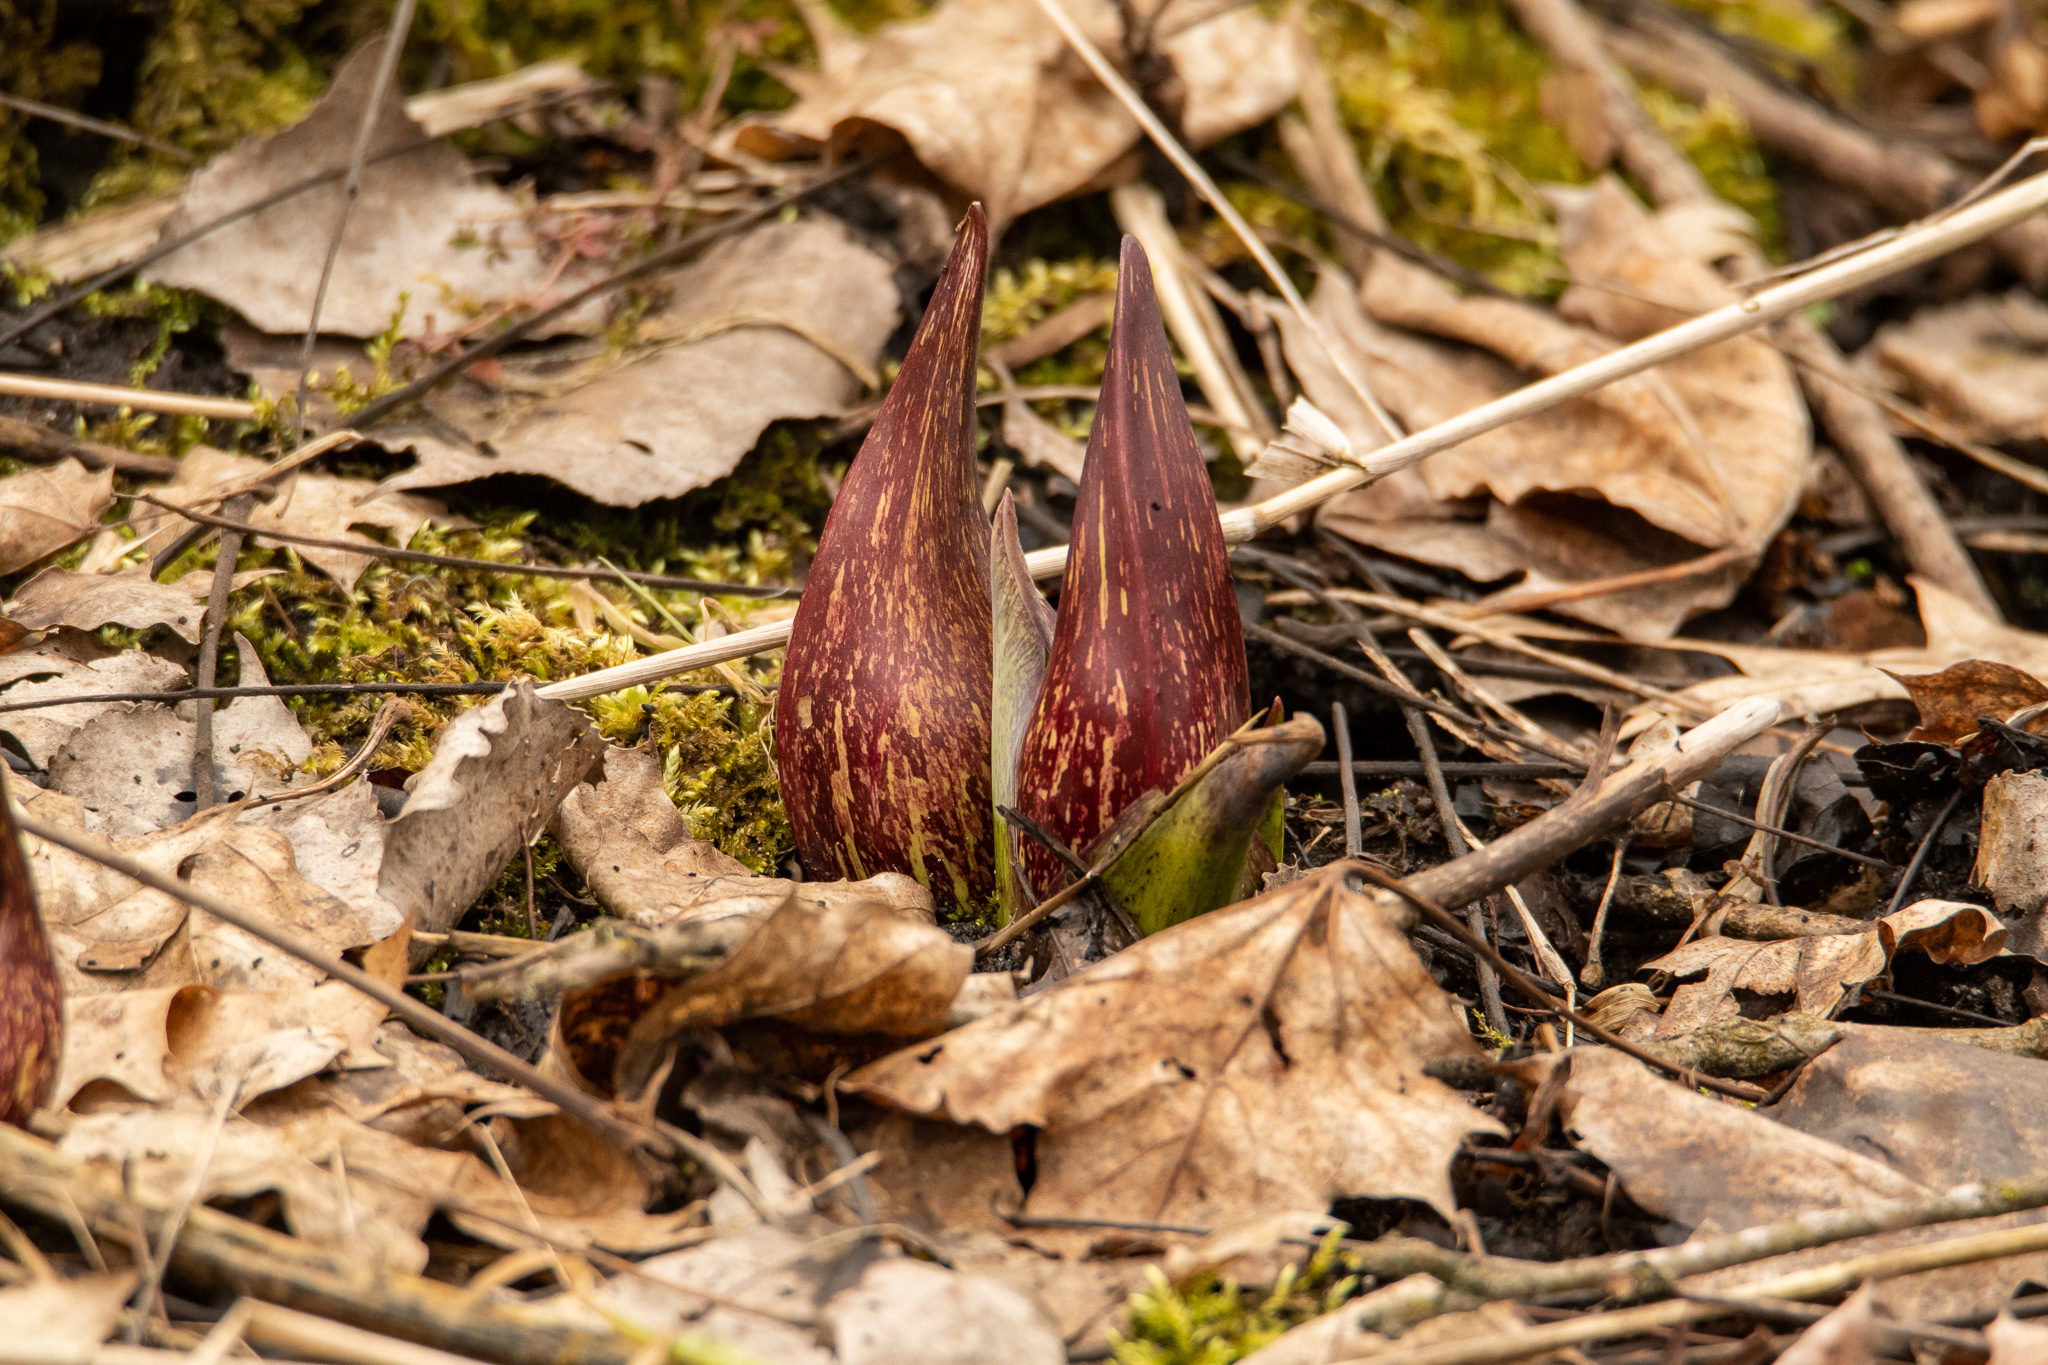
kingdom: Plantae
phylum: Tracheophyta
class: Liliopsida
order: Alismatales
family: Araceae
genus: Symplocarpus
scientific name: Symplocarpus foetidus
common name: Eastern skunk cabbage
